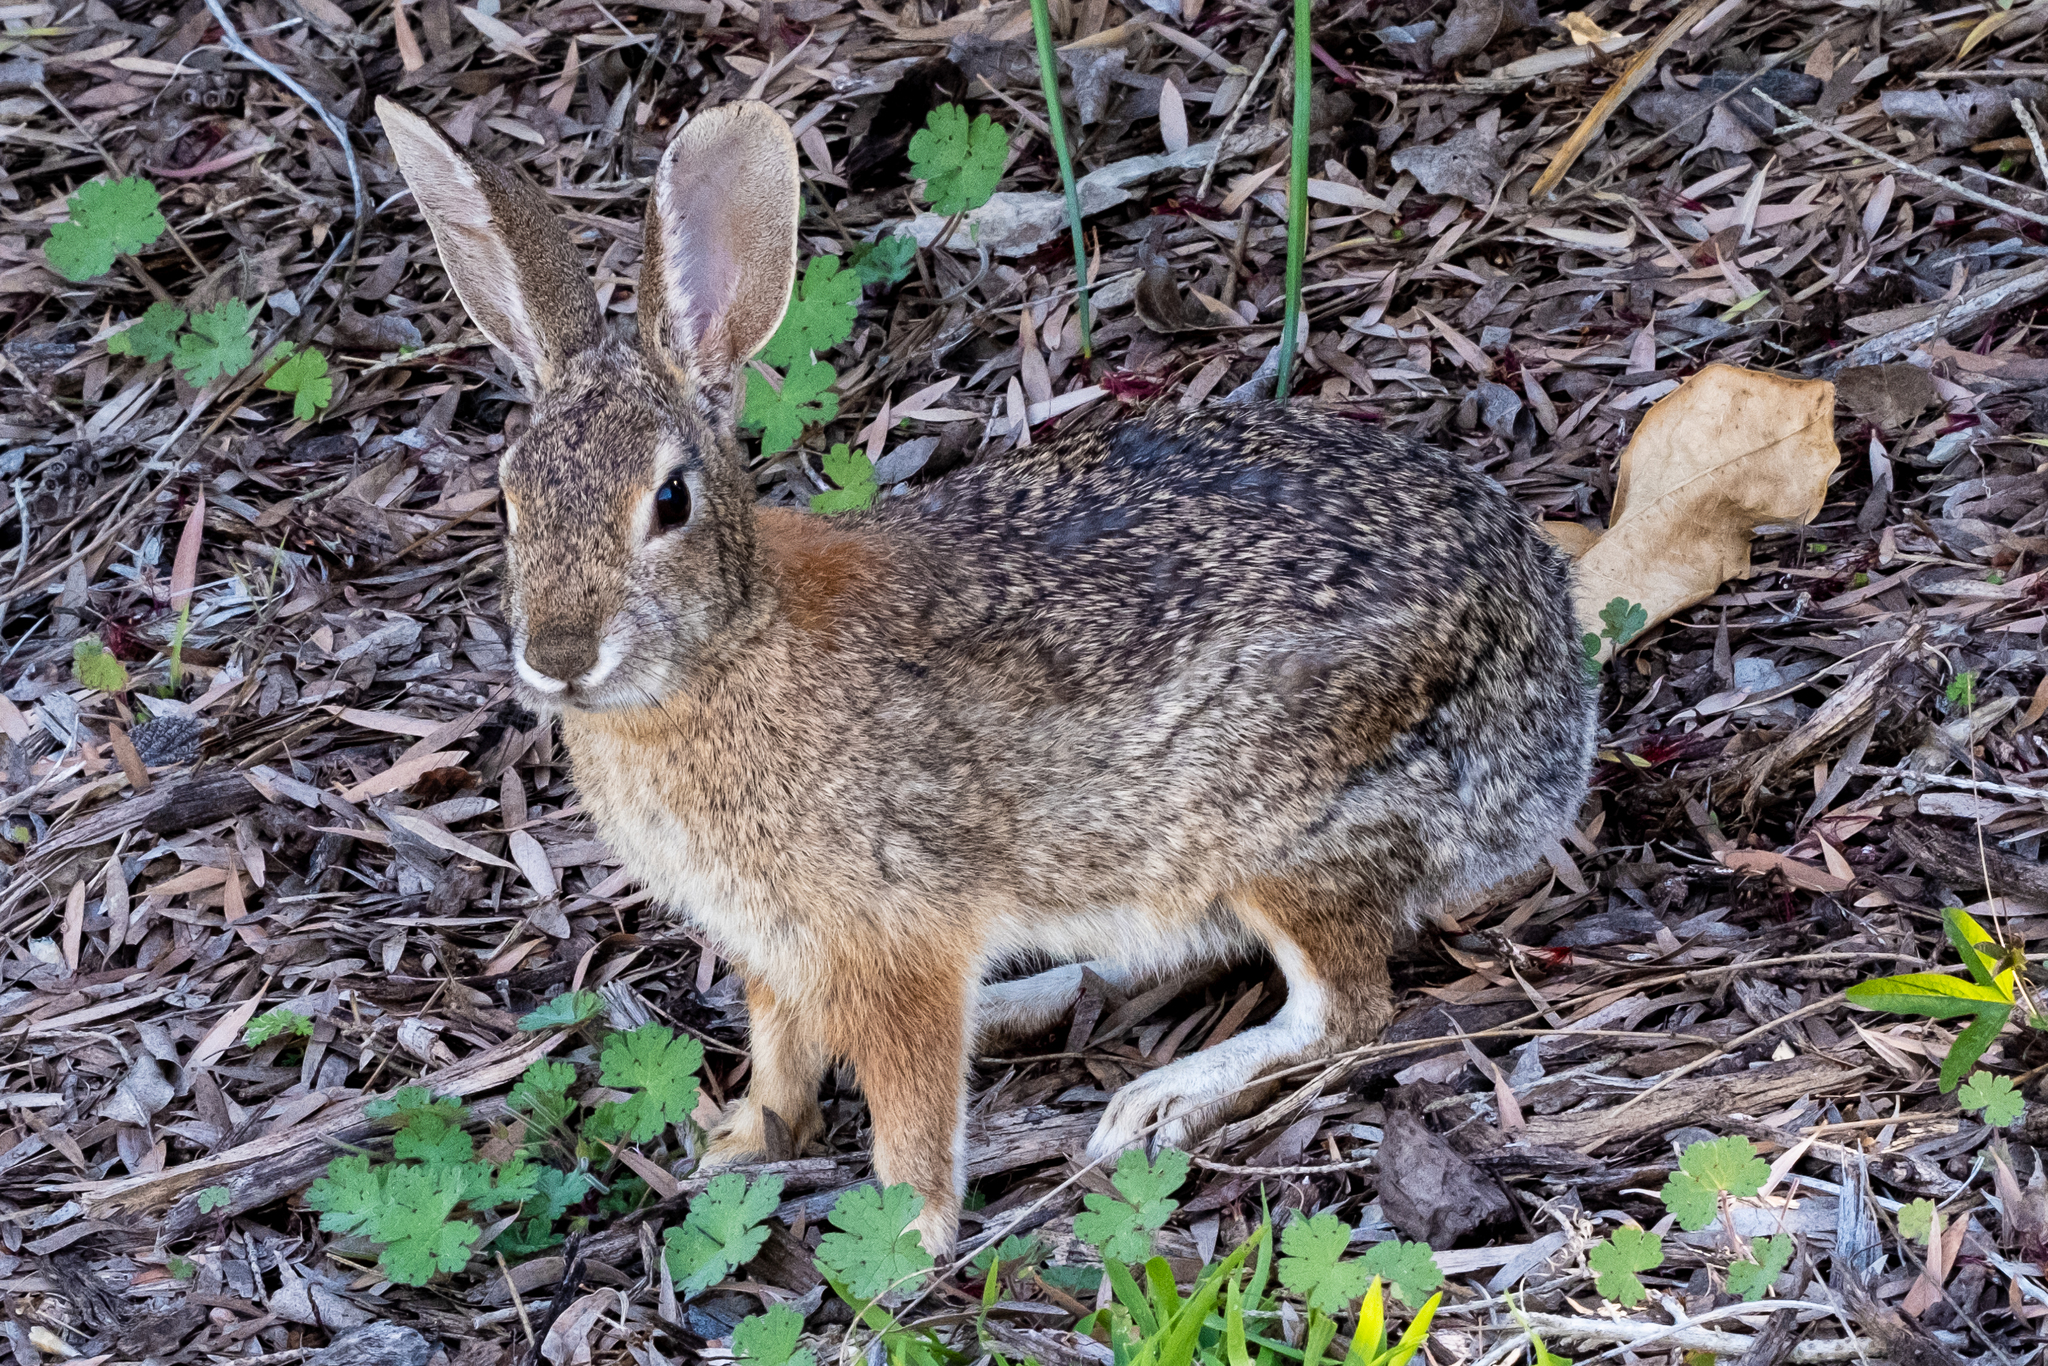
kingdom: Animalia
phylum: Chordata
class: Mammalia
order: Lagomorpha
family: Leporidae
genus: Sylvilagus
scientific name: Sylvilagus audubonii
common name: Desert cottontail
